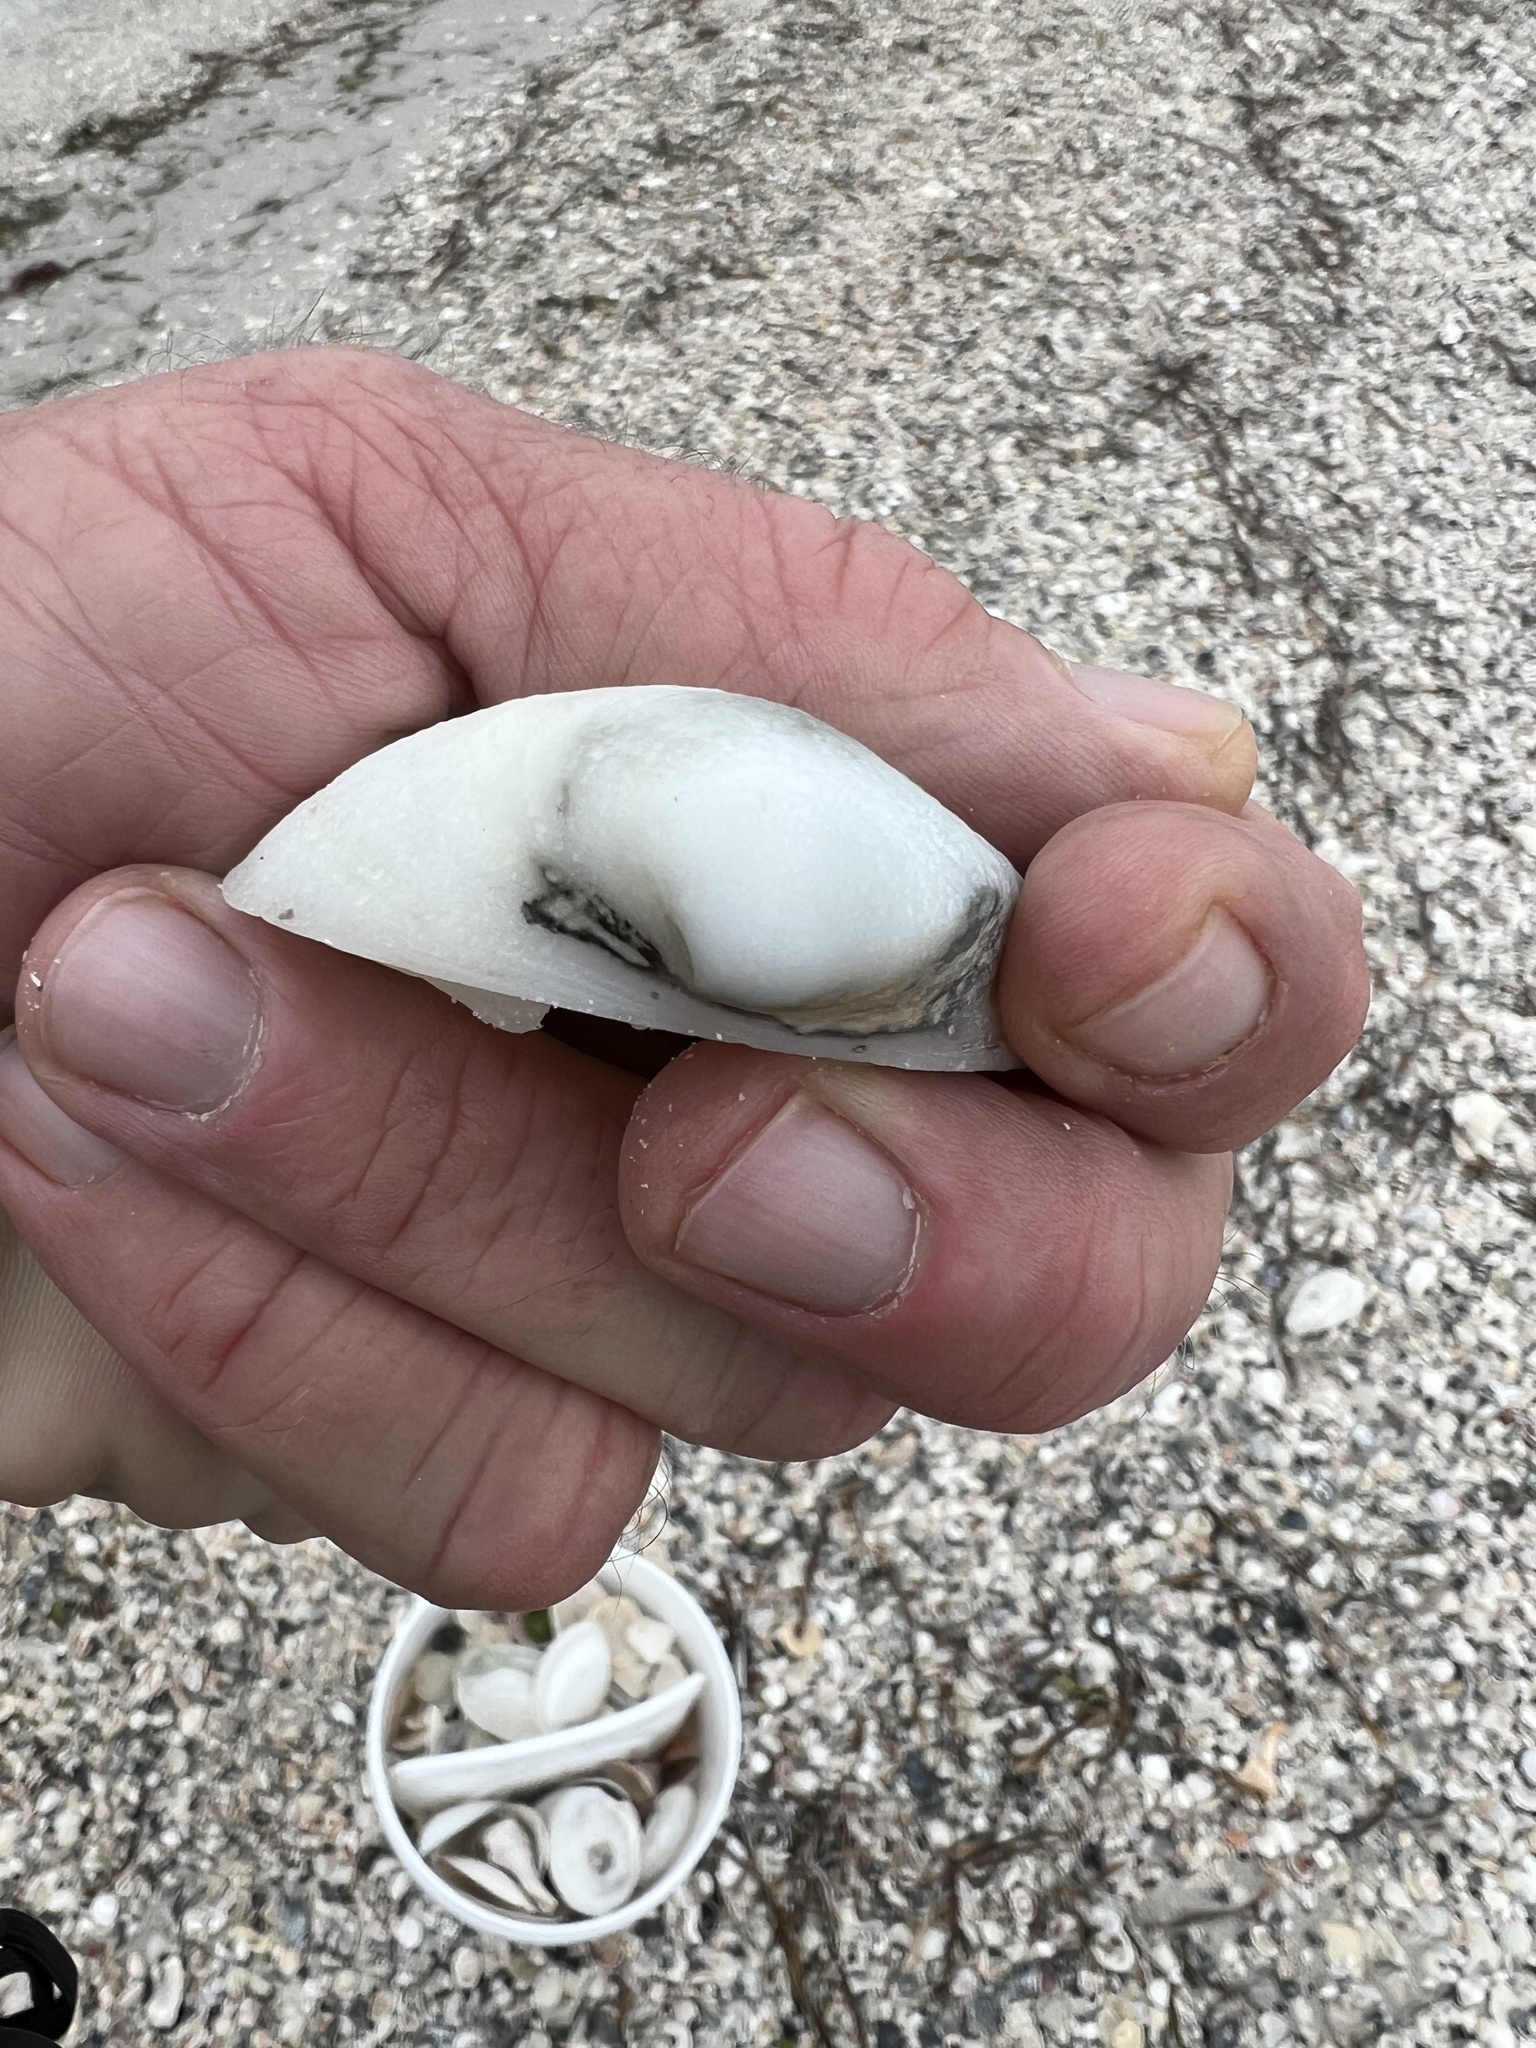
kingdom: Animalia
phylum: Mollusca
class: Bivalvia
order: Venerida
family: Mactridae
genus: Rangia
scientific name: Rangia cuneata
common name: Atlantic rangia
